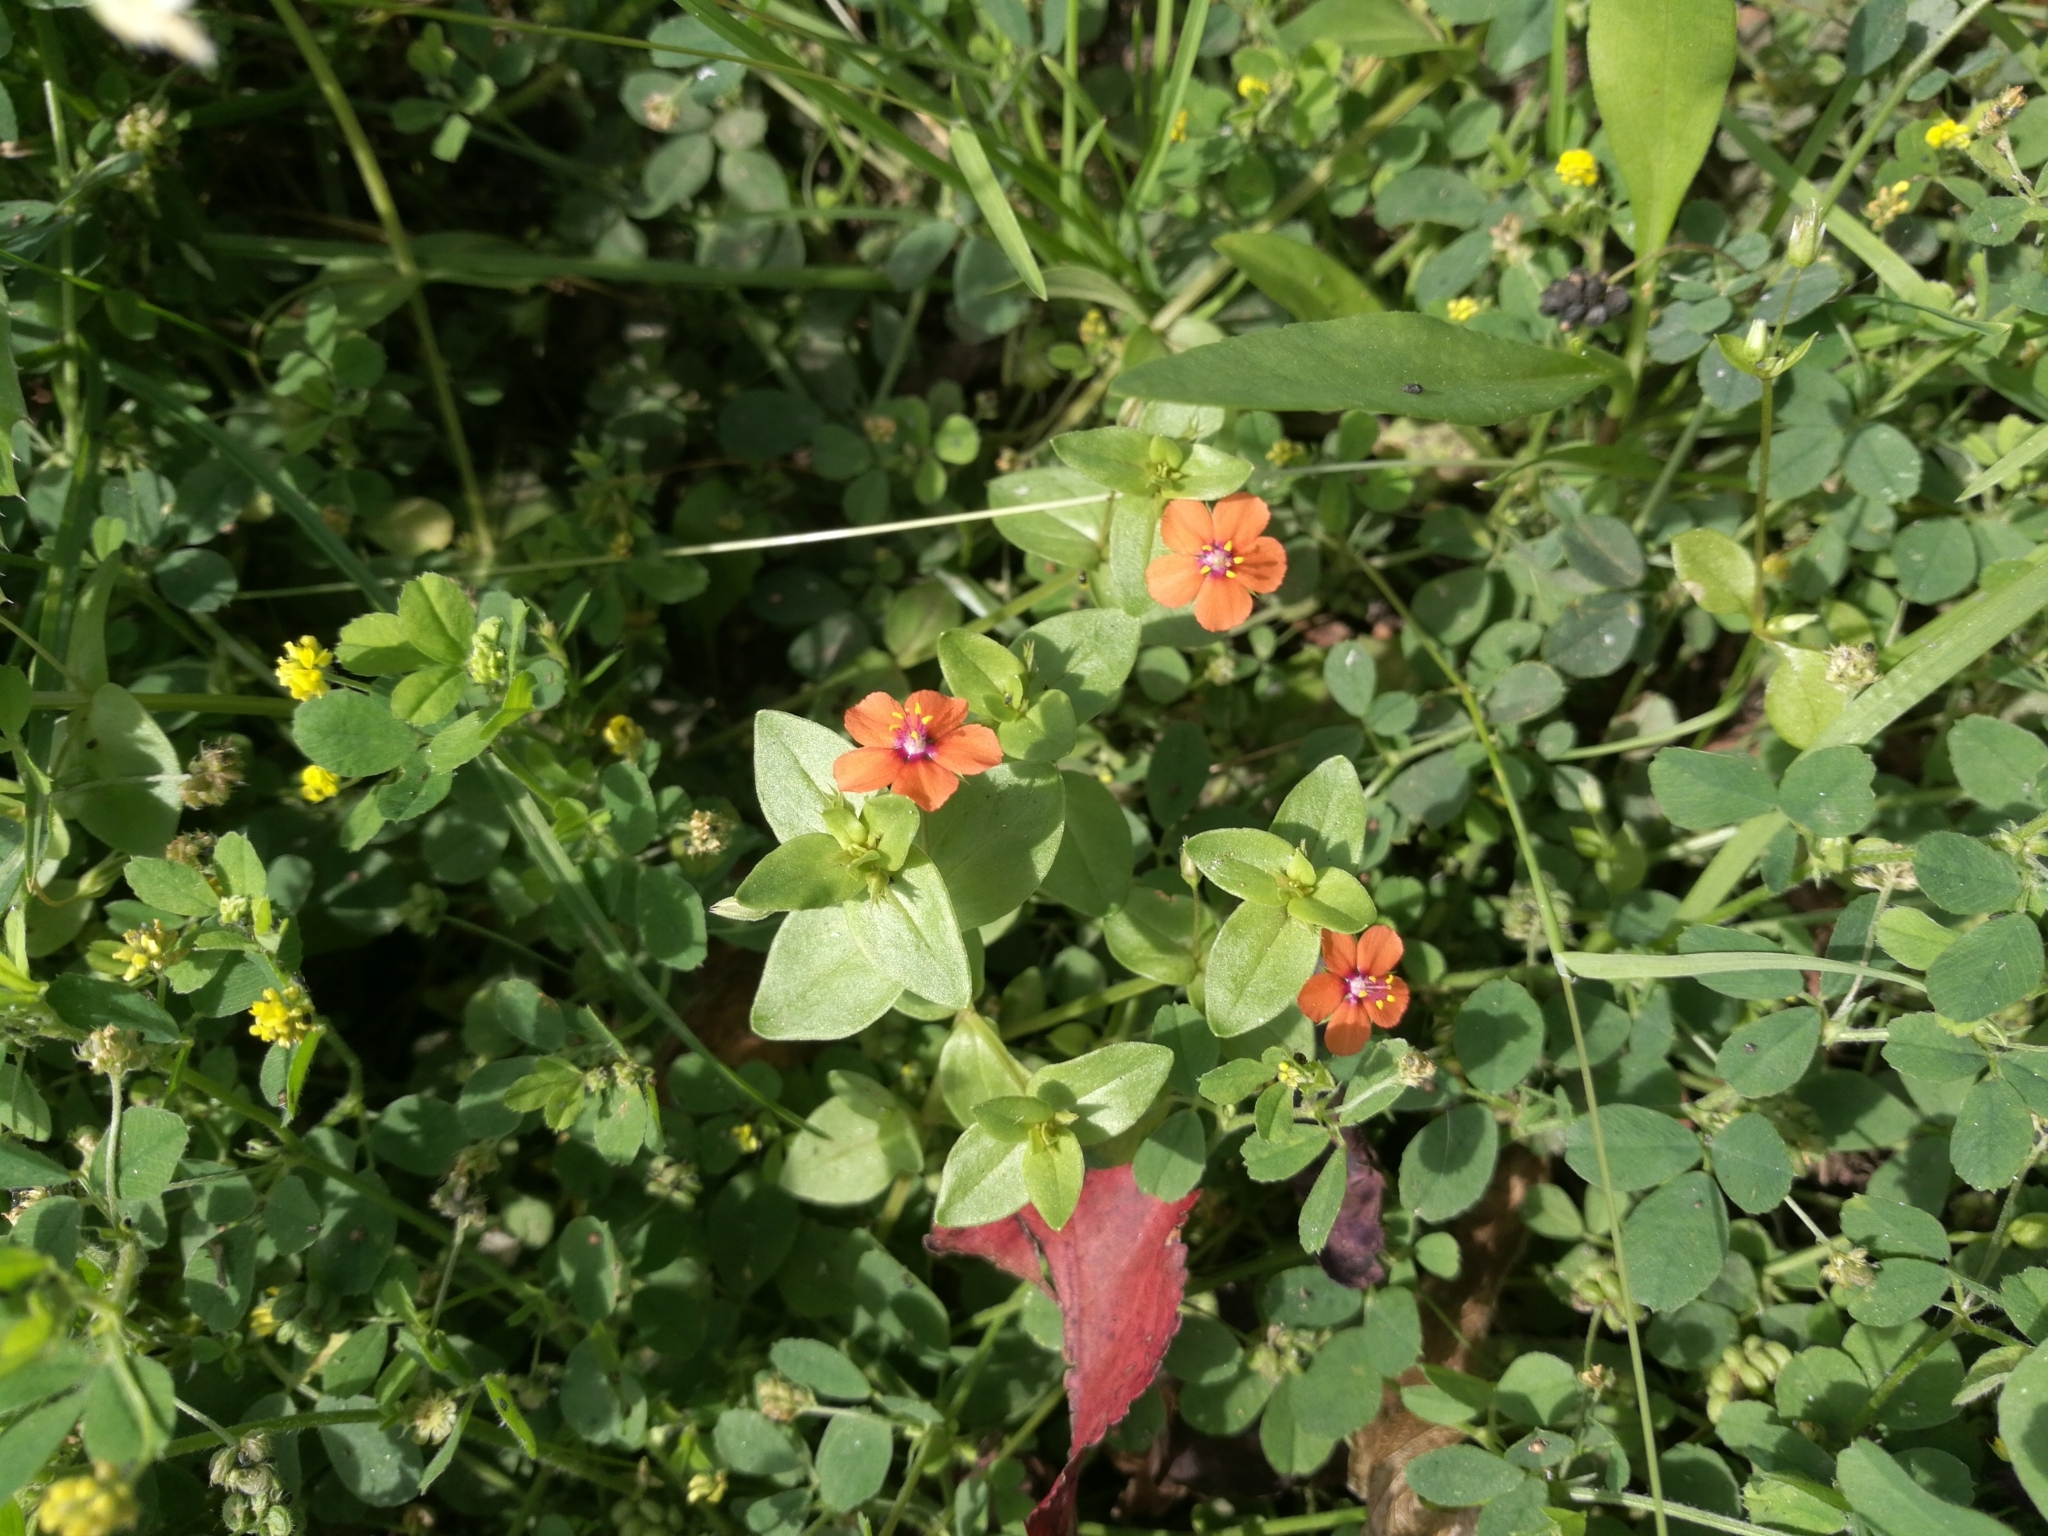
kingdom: Plantae
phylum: Tracheophyta
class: Magnoliopsida
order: Ericales
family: Primulaceae
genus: Lysimachia
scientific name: Lysimachia arvensis
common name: Scarlet pimpernel
